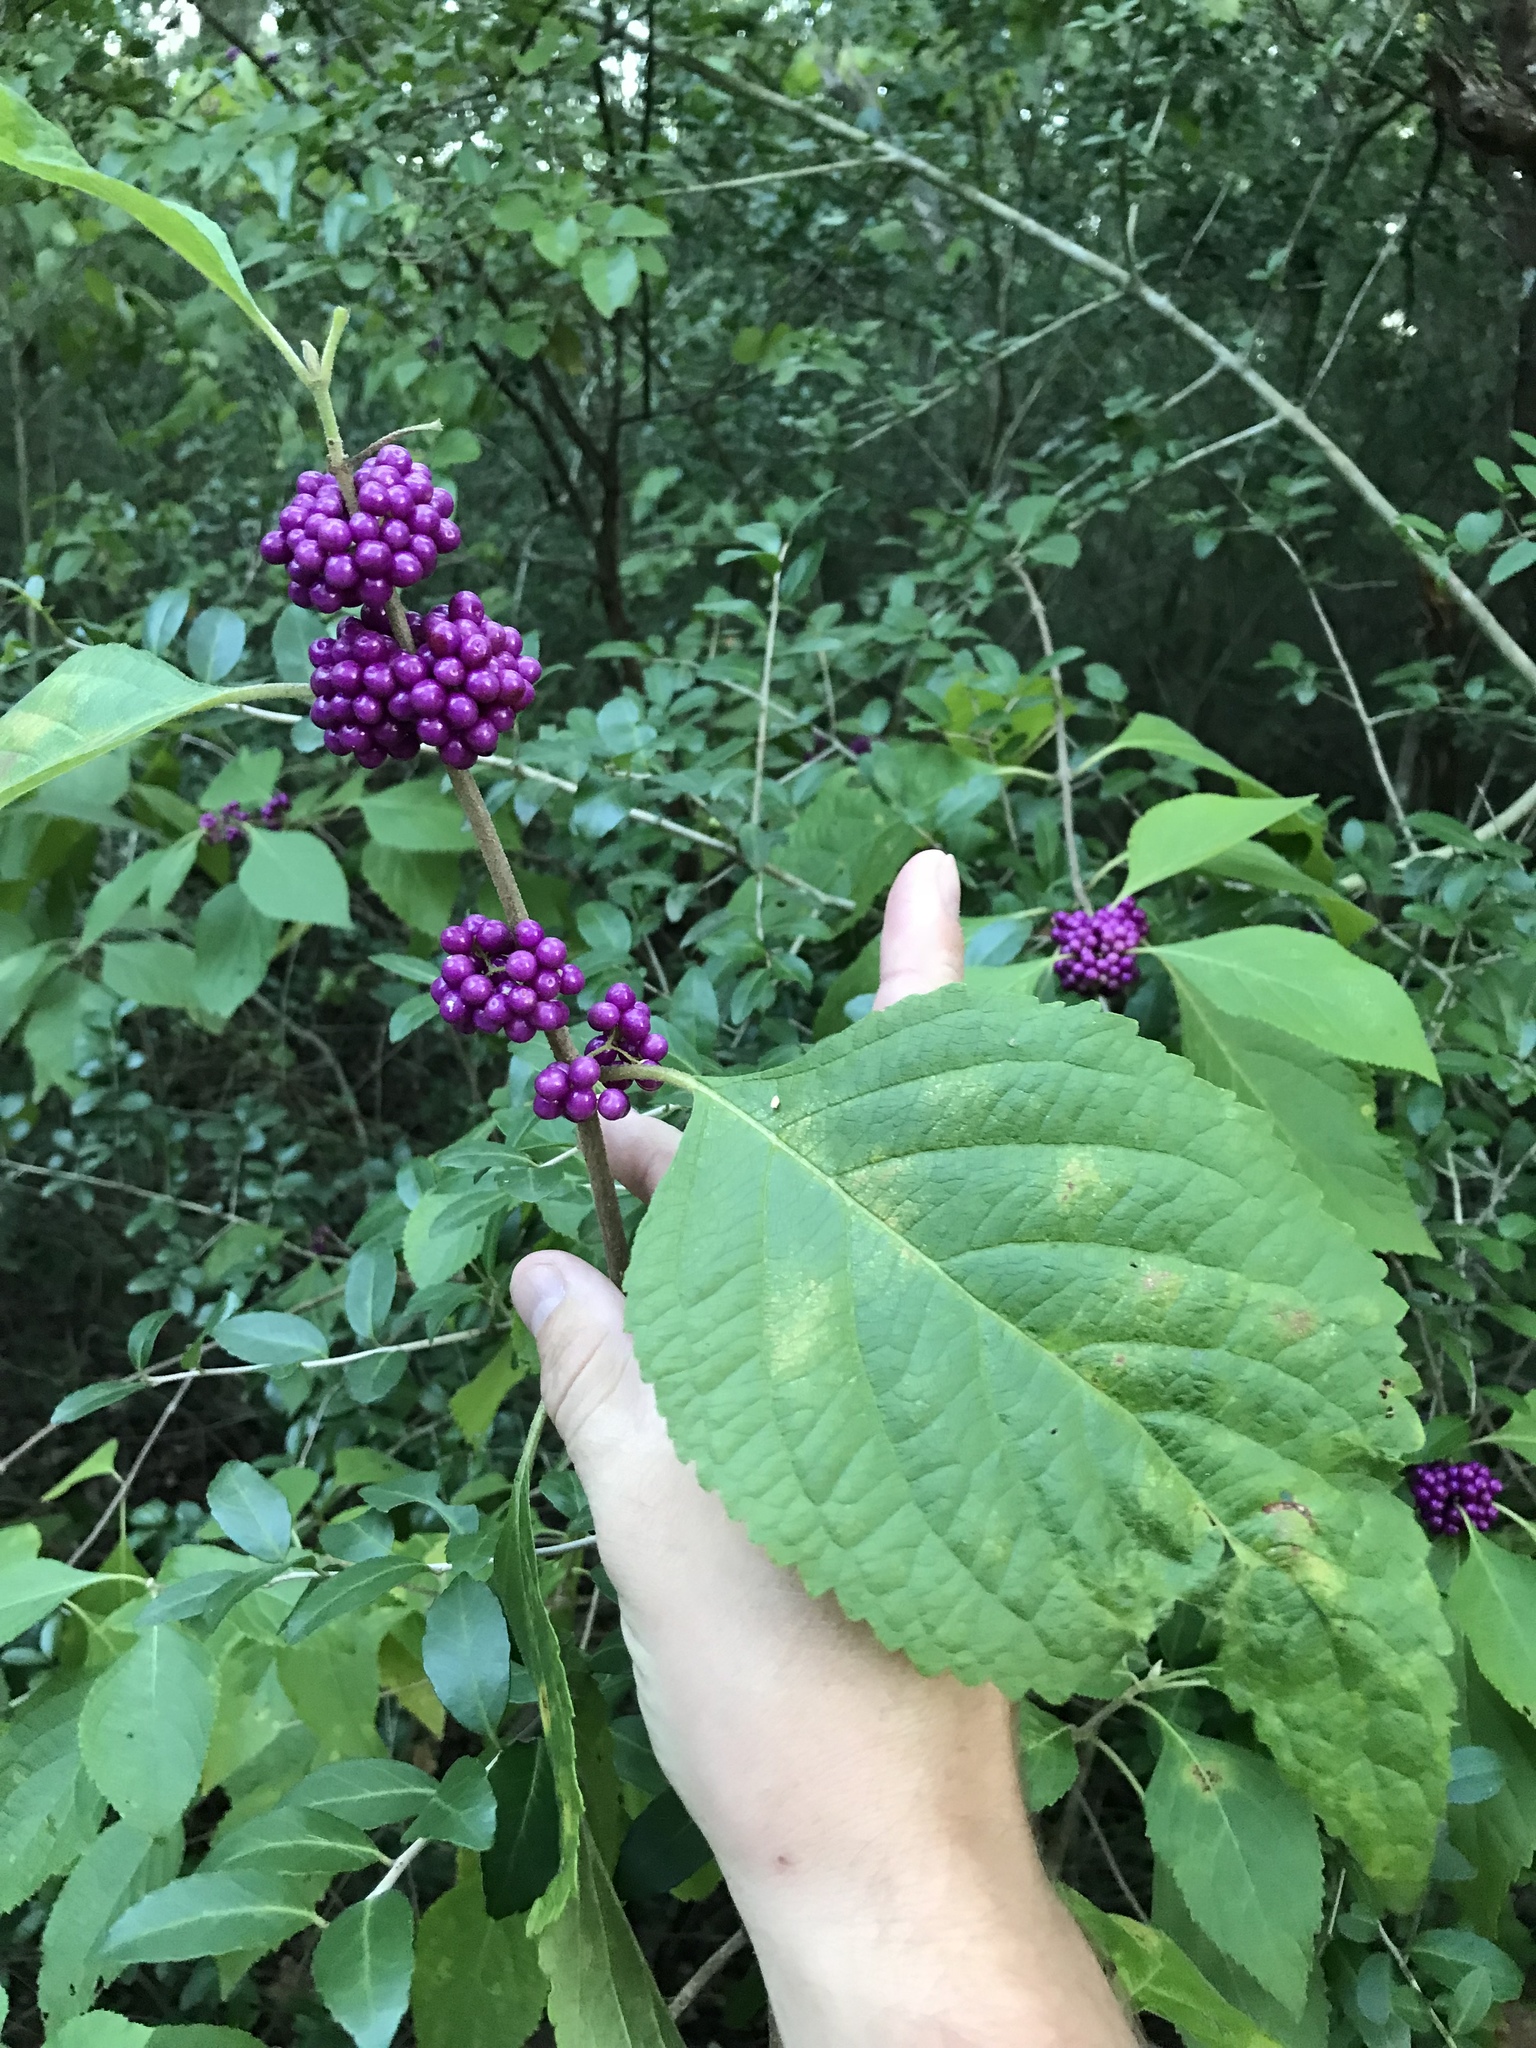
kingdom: Plantae
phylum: Tracheophyta
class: Magnoliopsida
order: Lamiales
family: Lamiaceae
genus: Callicarpa
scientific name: Callicarpa americana
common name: American beautyberry
